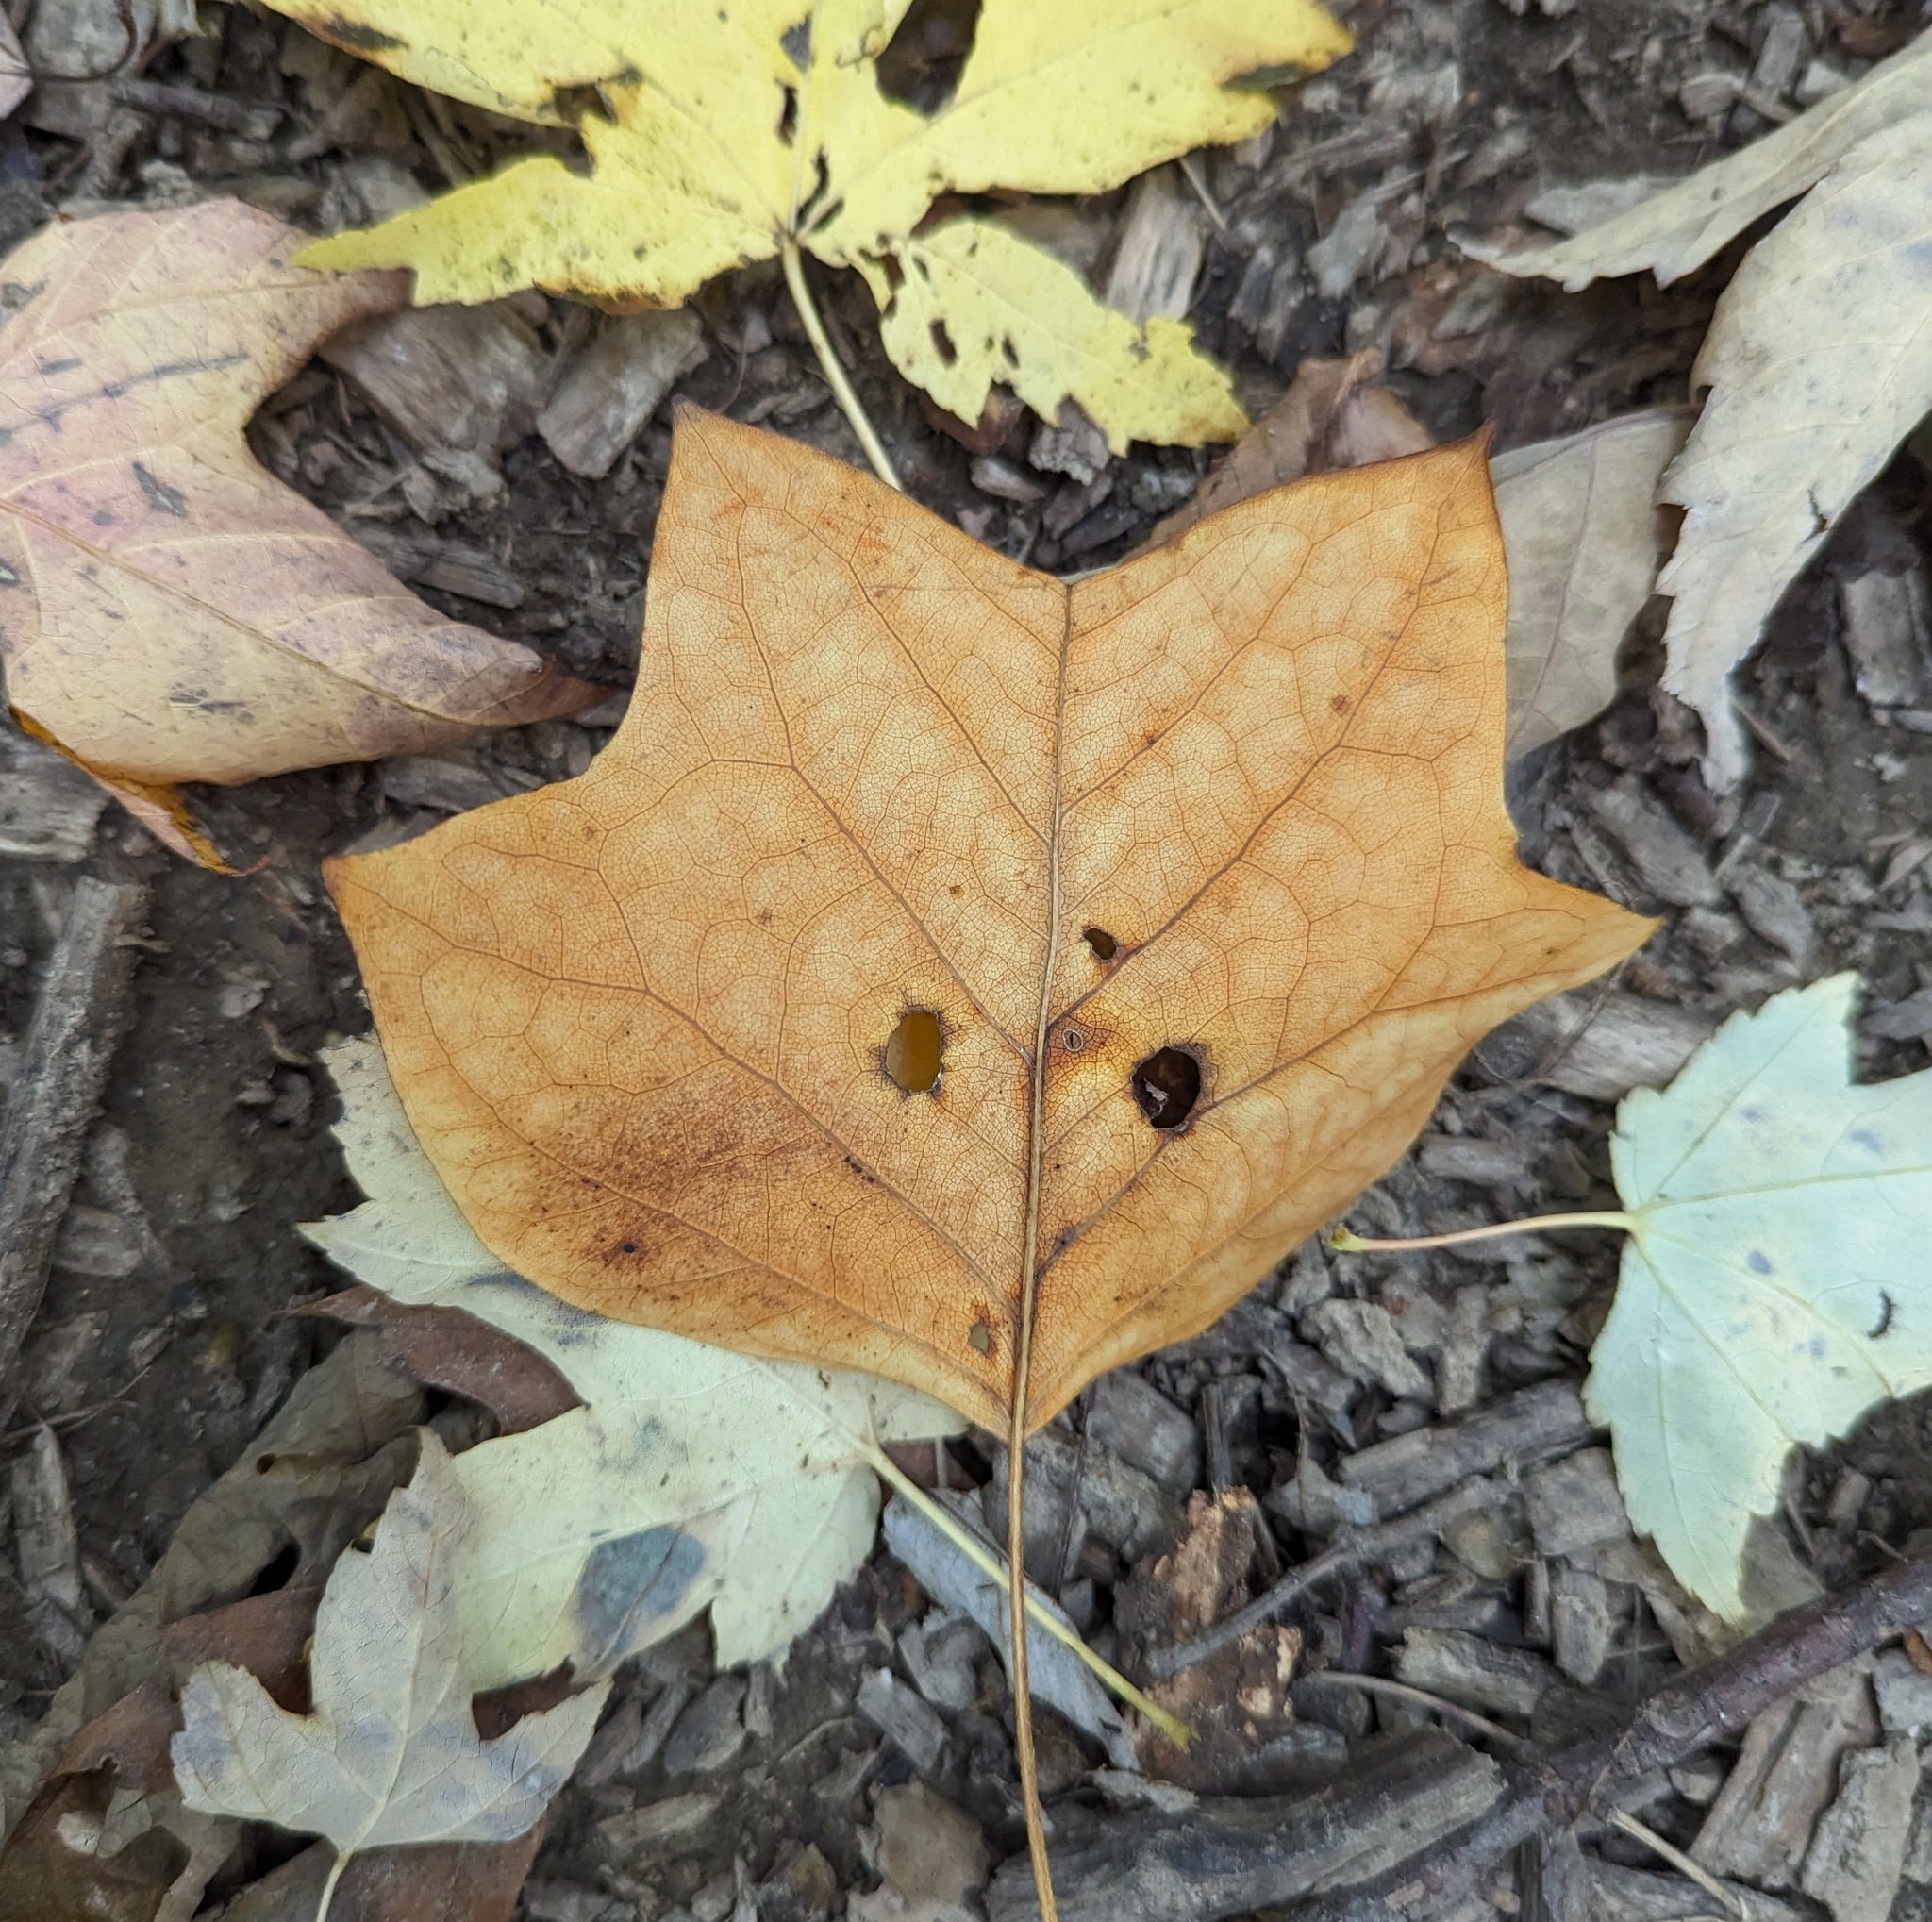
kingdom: Plantae
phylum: Tracheophyta
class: Magnoliopsida
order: Magnoliales
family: Magnoliaceae
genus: Liriodendron
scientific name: Liriodendron tulipifera
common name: Tulip tree
